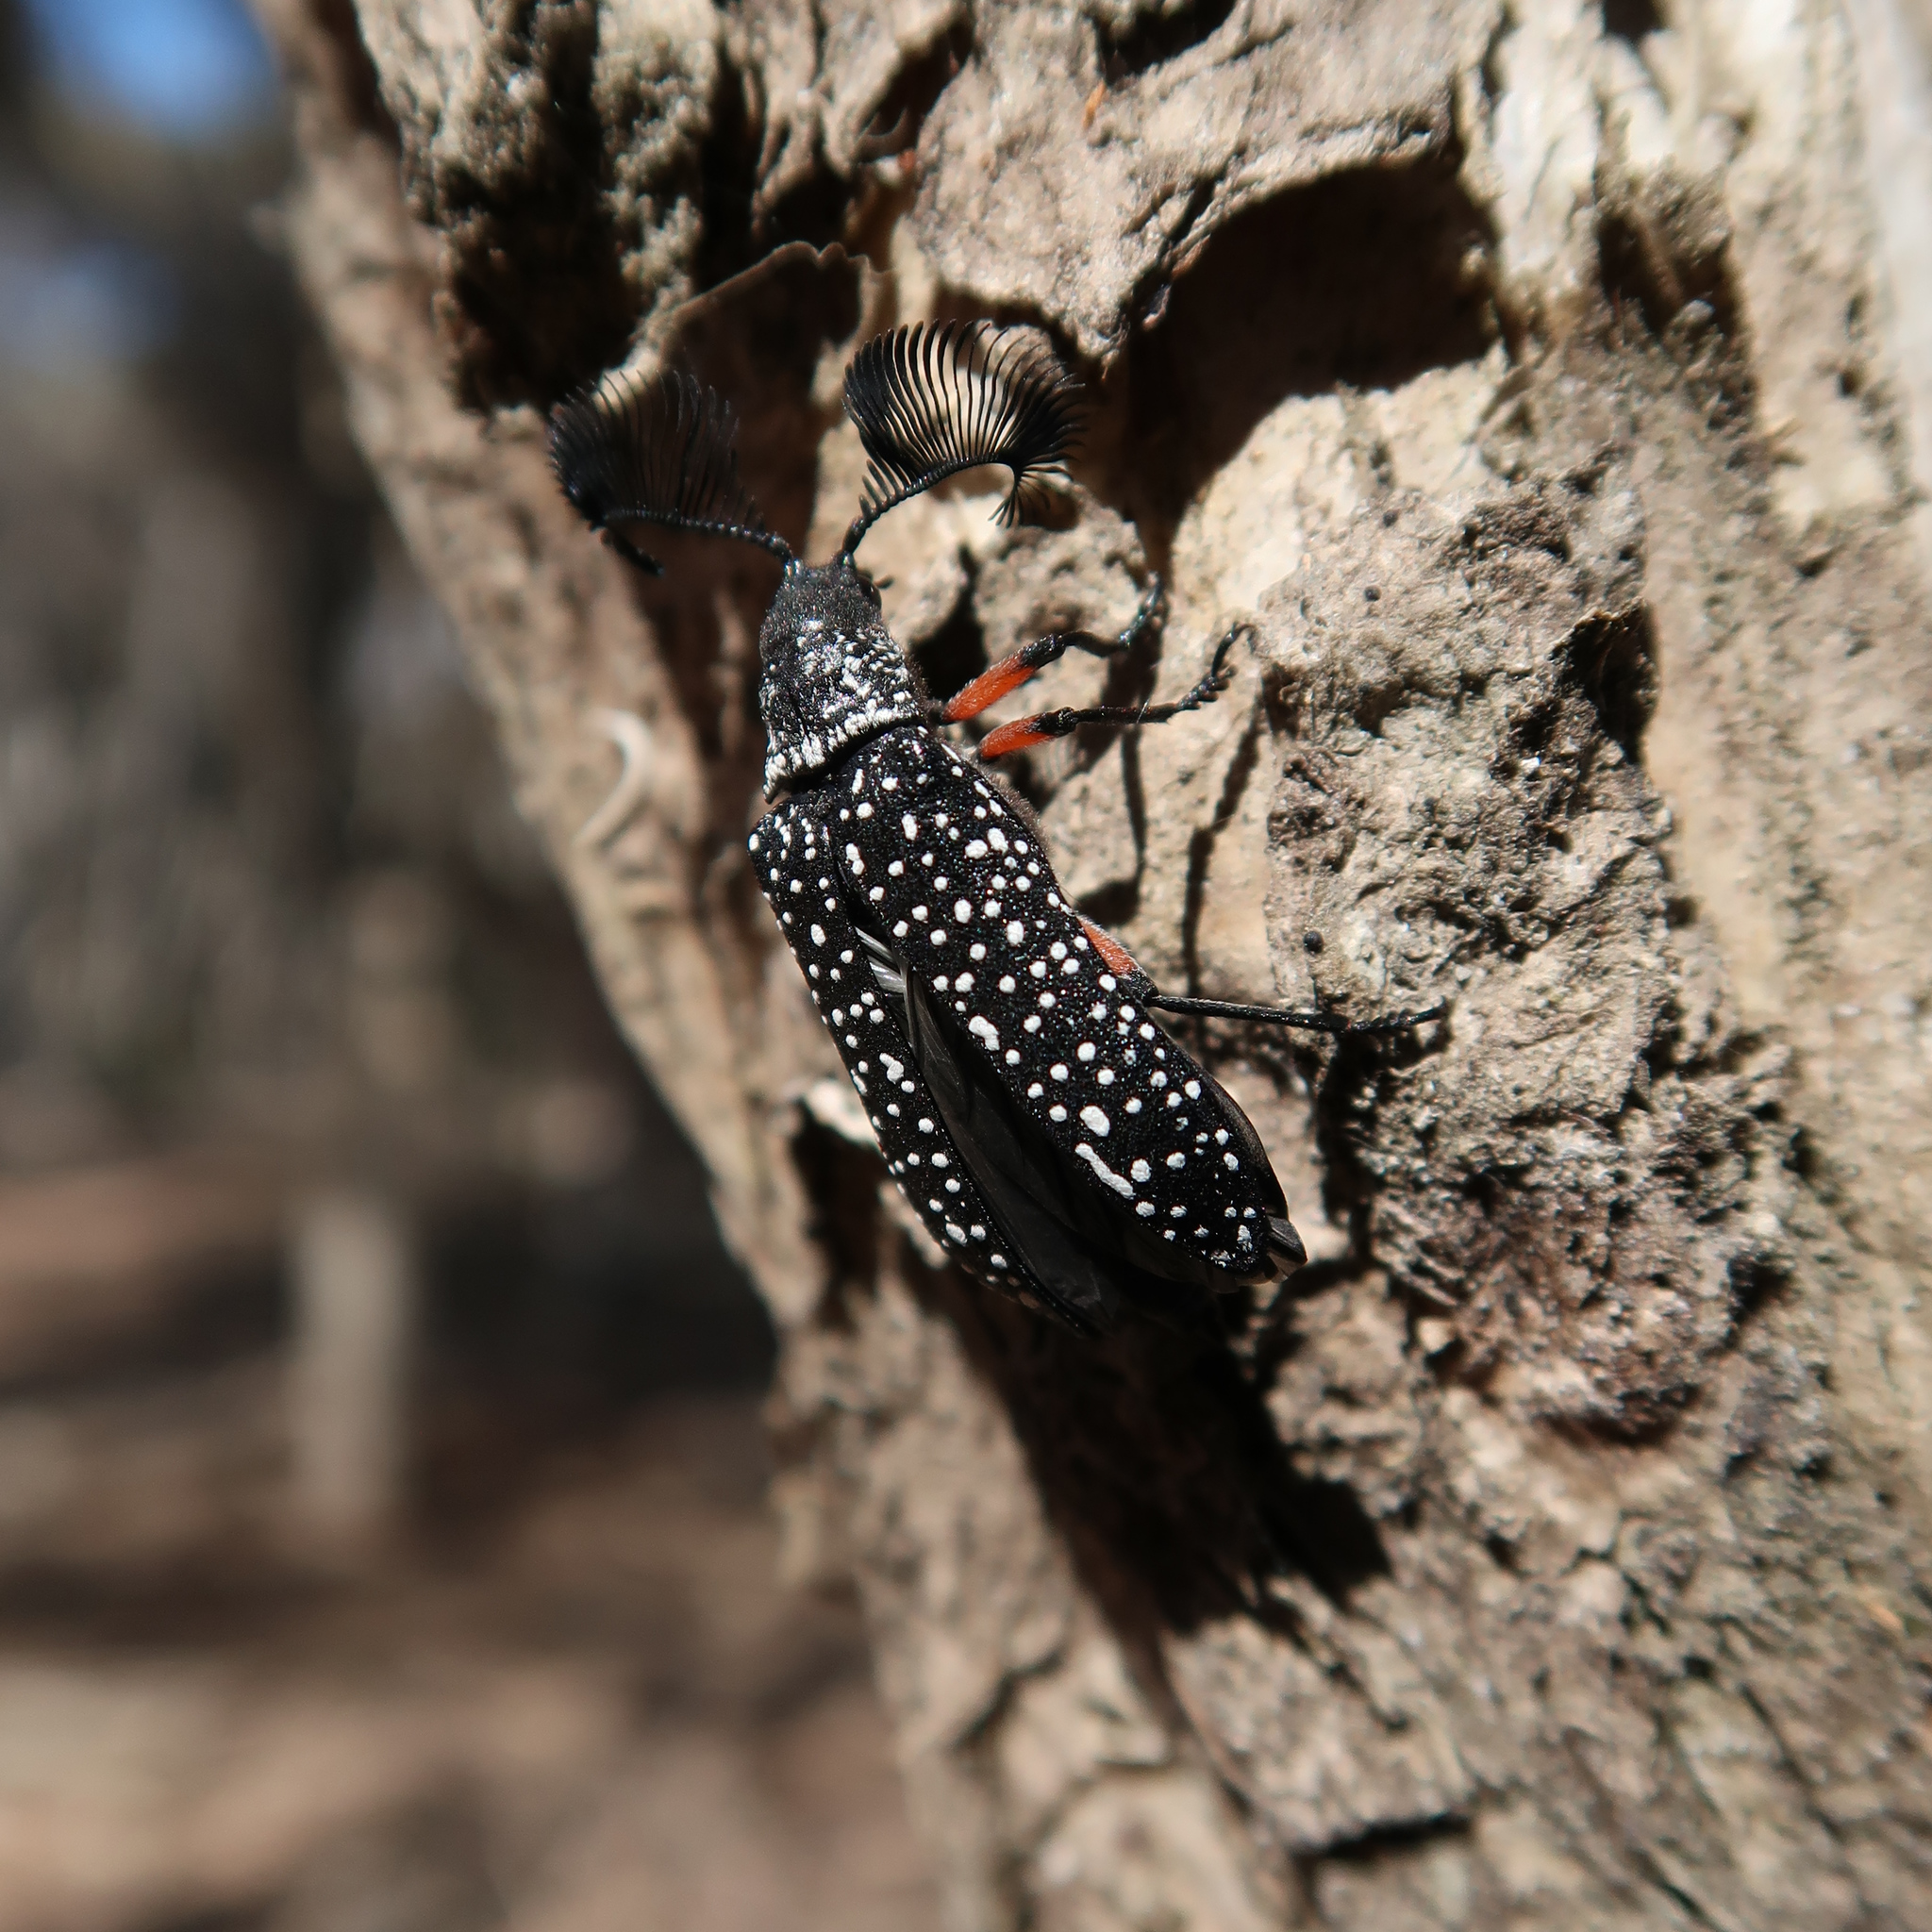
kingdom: Animalia
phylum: Arthropoda
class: Insecta
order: Coleoptera
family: Rhipiceridae
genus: Rhipicera
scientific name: Rhipicera femorata
